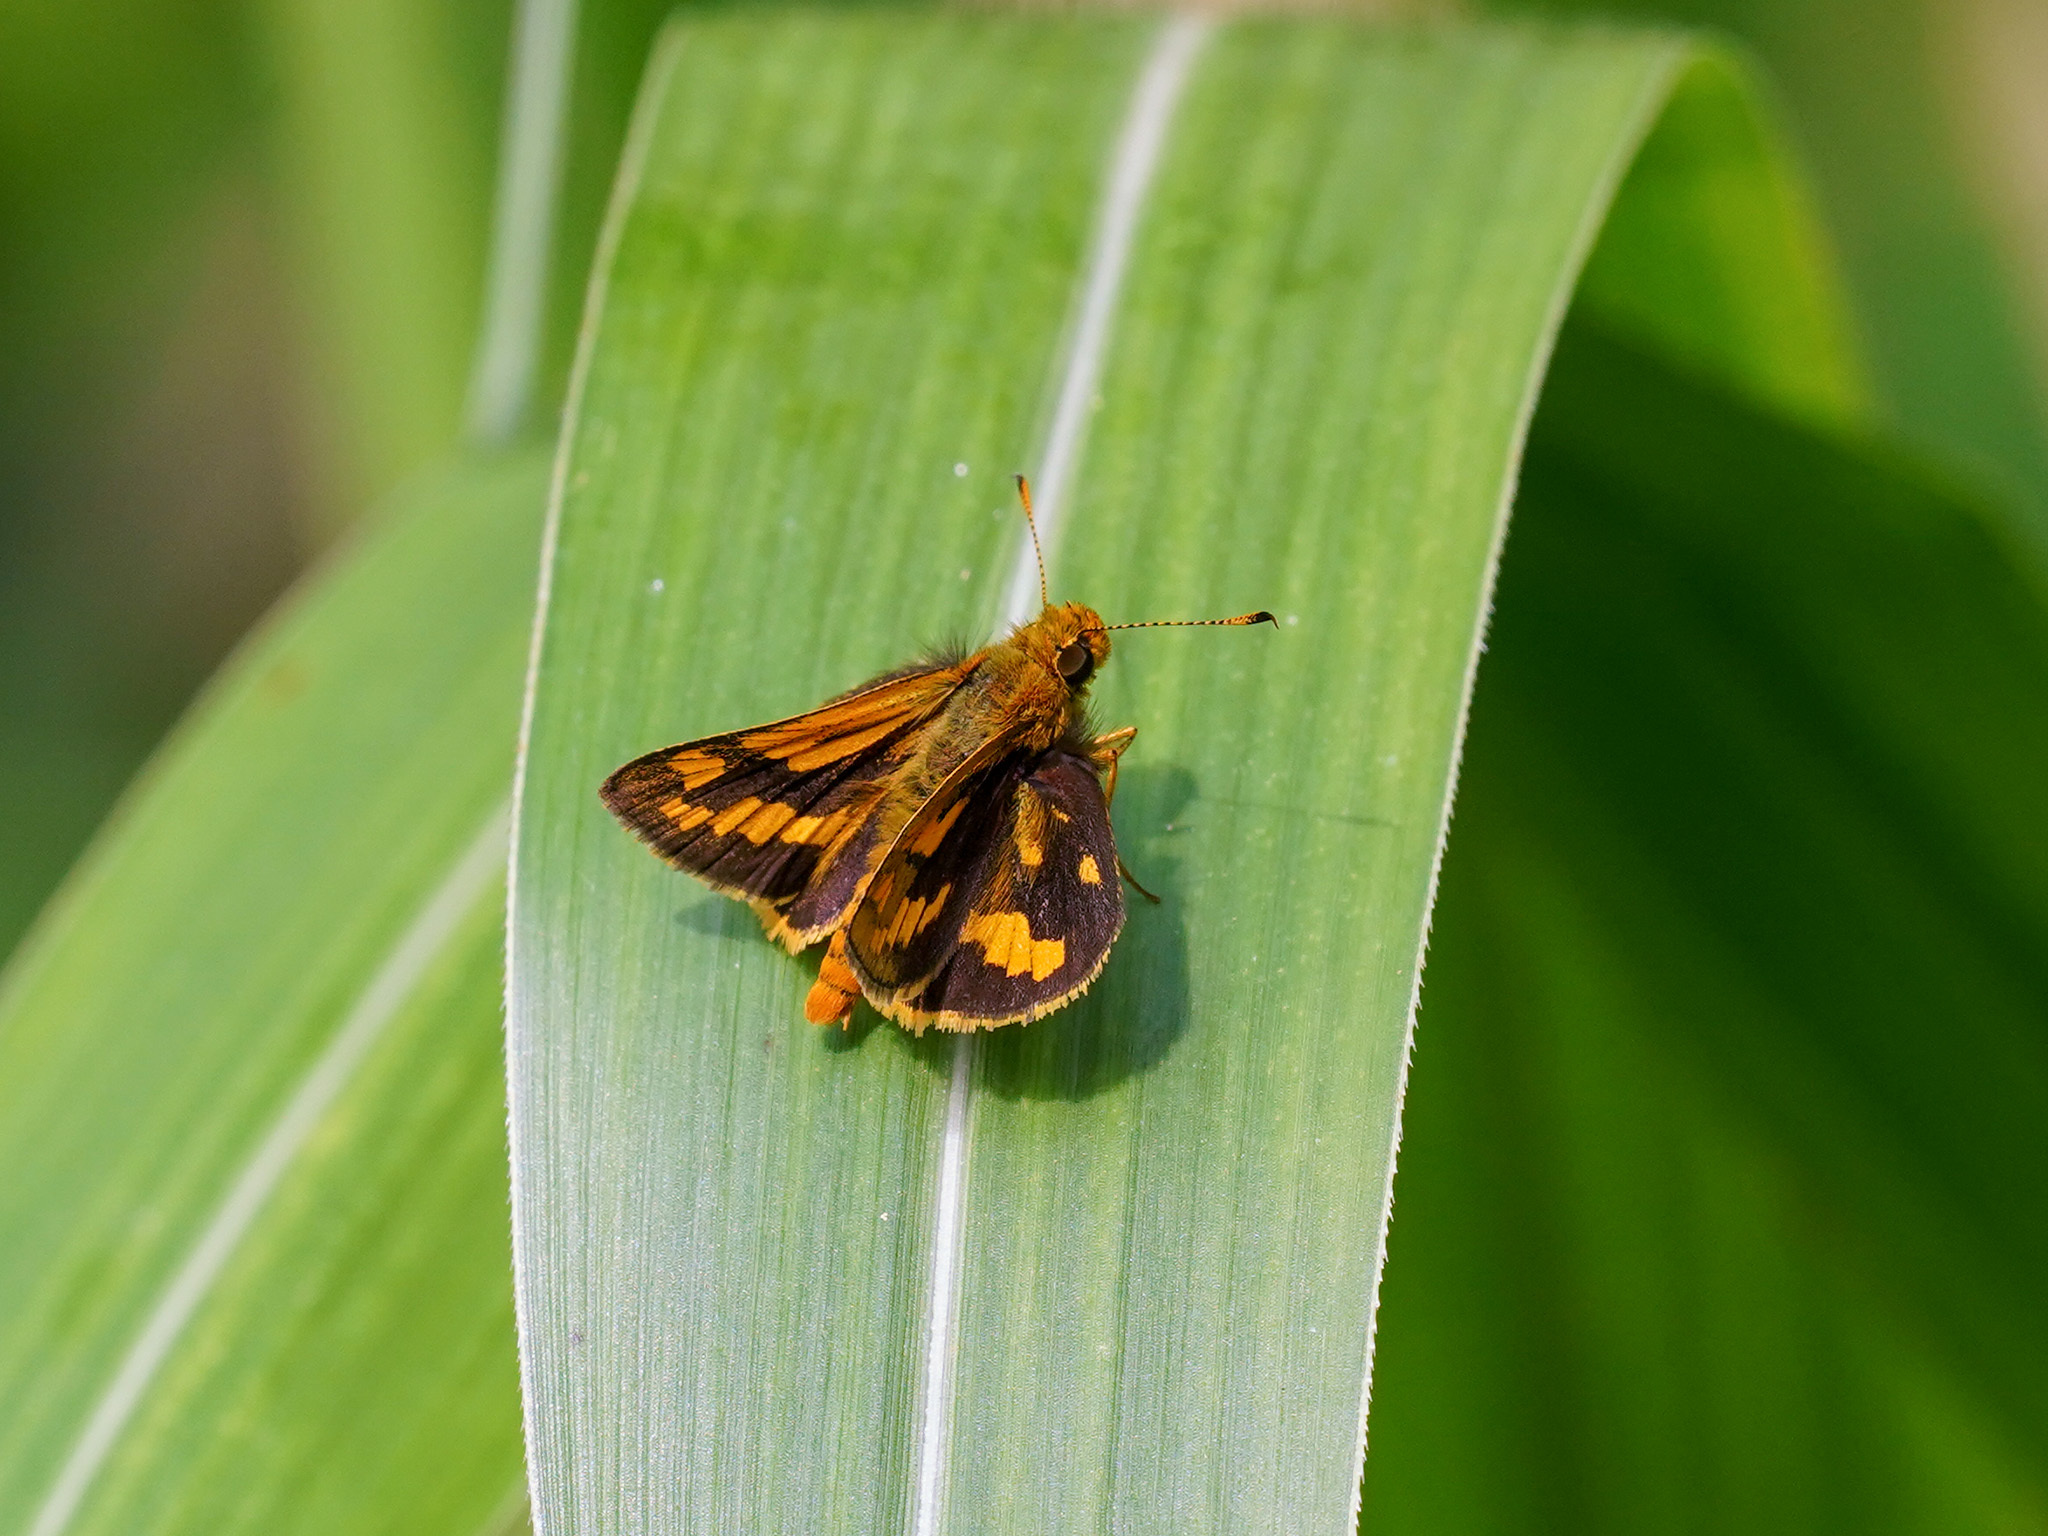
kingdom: Animalia
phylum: Arthropoda
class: Insecta
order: Lepidoptera
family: Hesperiidae
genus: Potanthus
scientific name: Potanthus omaha
